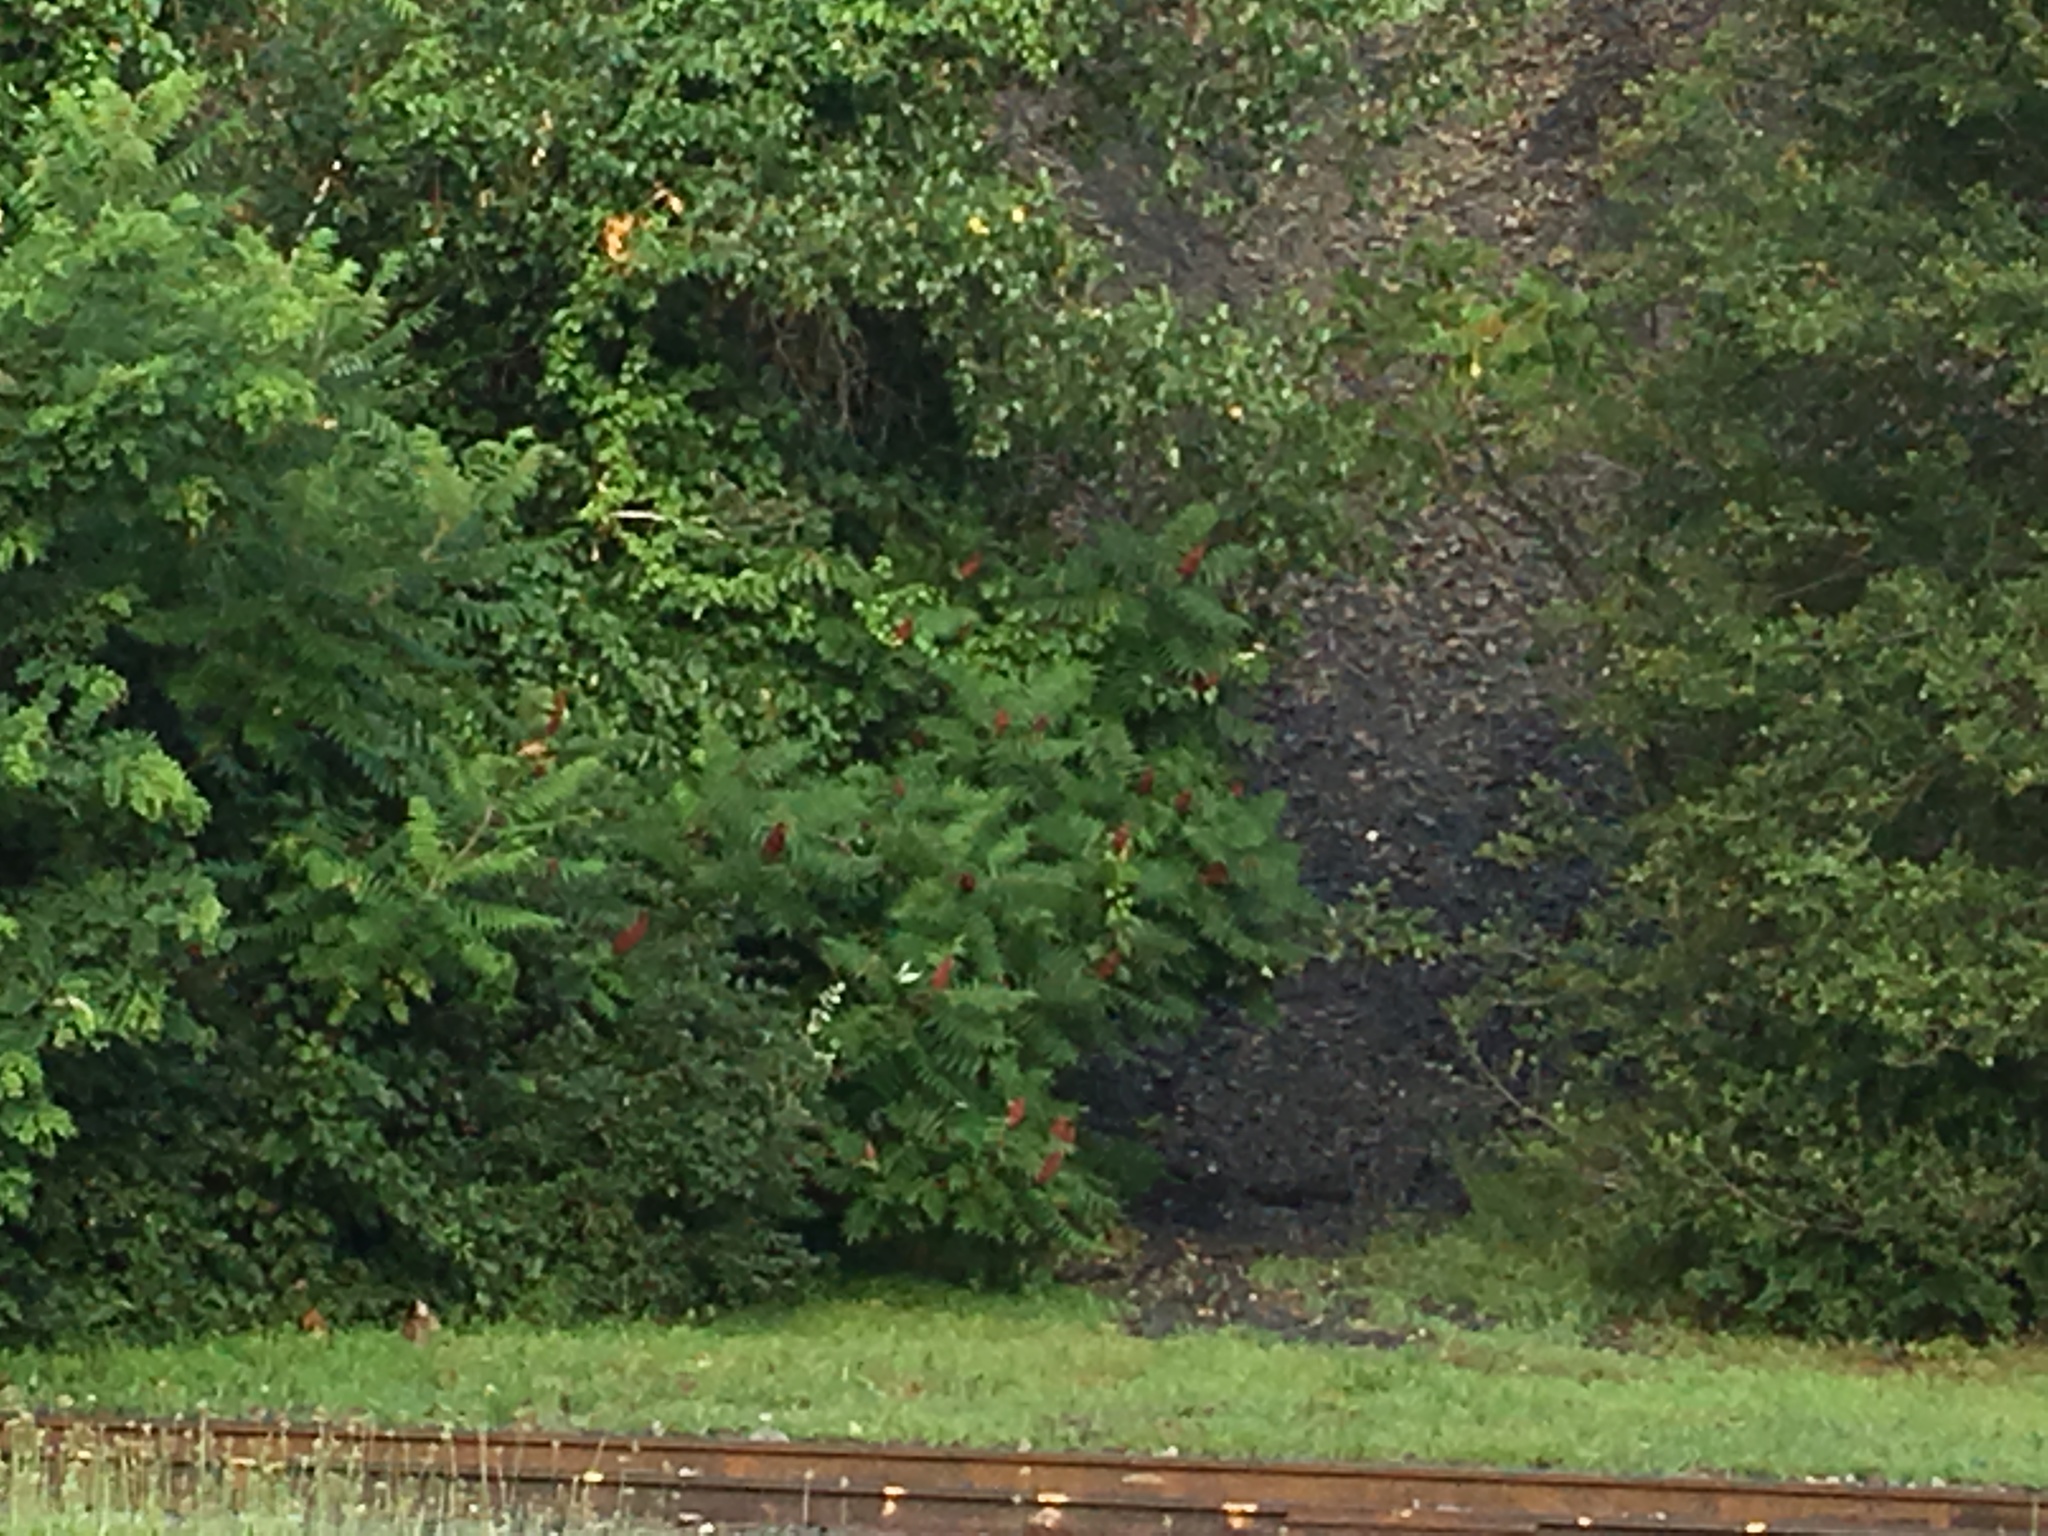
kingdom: Plantae
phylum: Tracheophyta
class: Magnoliopsida
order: Sapindales
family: Anacardiaceae
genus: Rhus
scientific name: Rhus typhina
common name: Staghorn sumac
